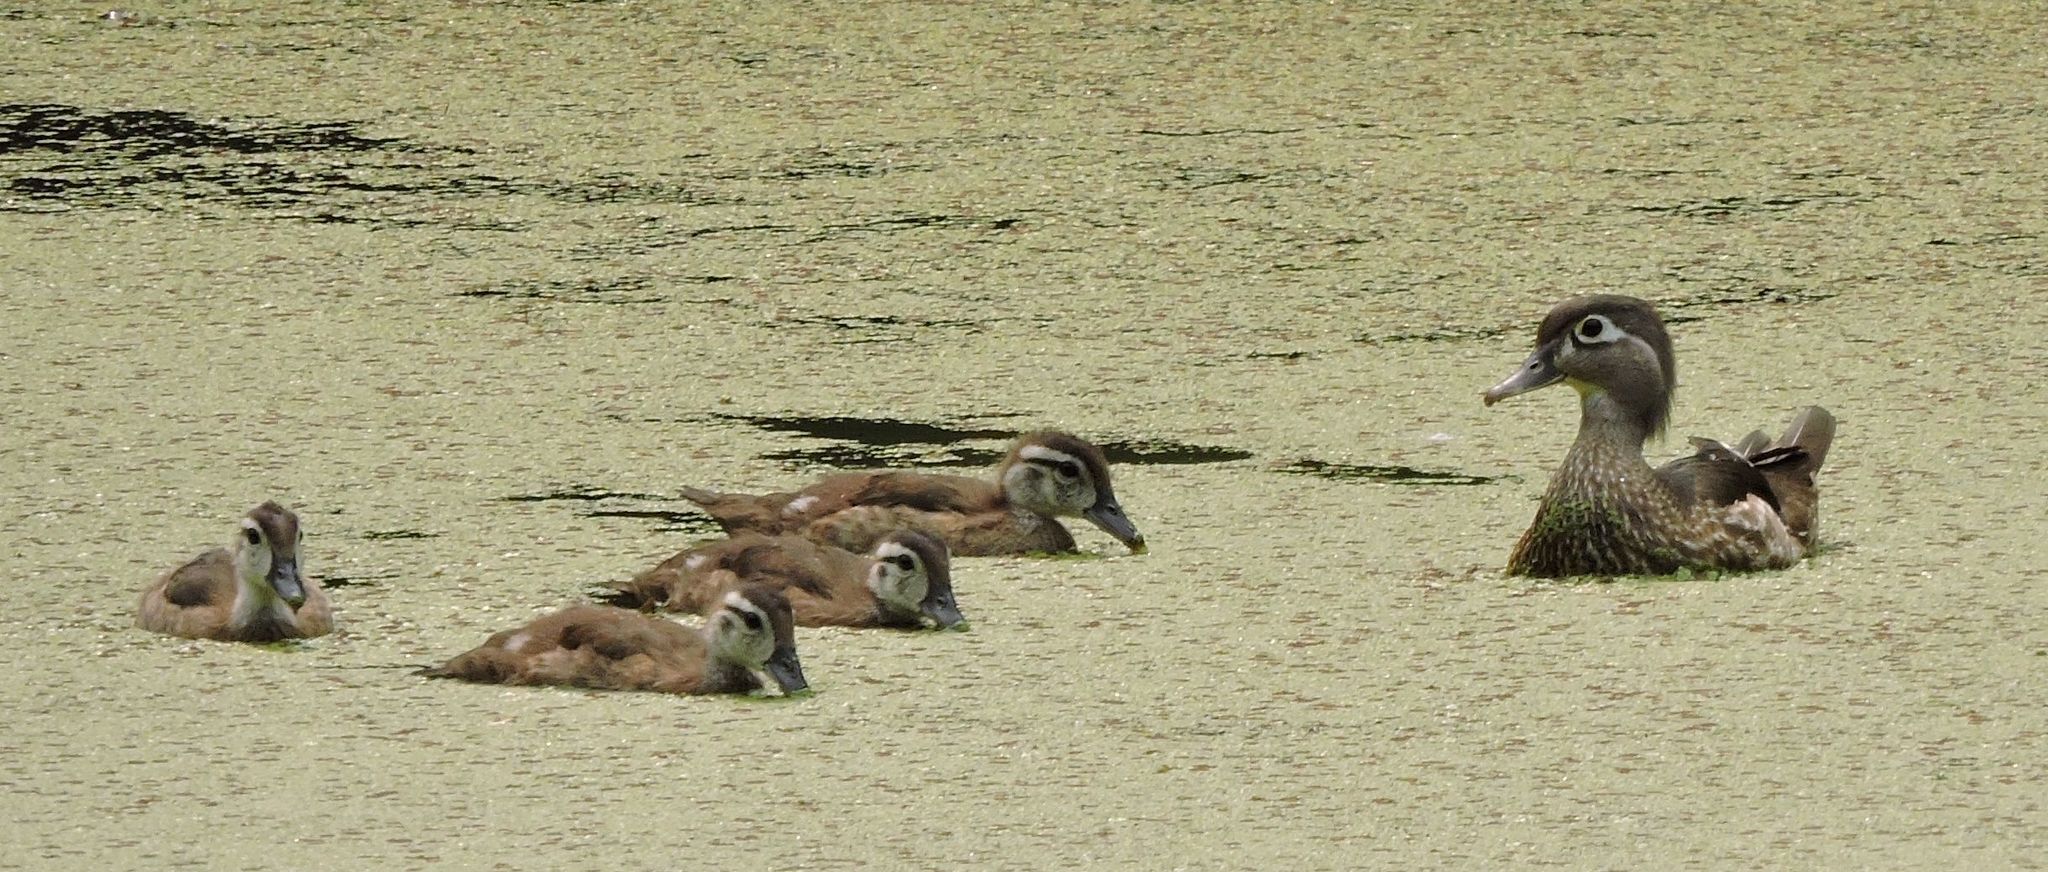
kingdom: Animalia
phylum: Chordata
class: Aves
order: Anseriformes
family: Anatidae
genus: Aix
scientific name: Aix sponsa
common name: Wood duck
